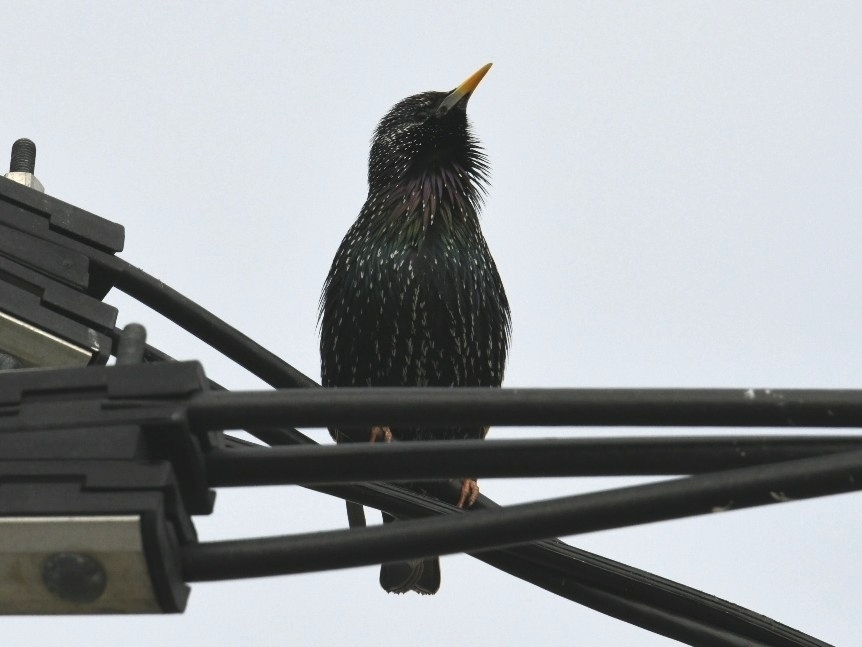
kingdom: Animalia
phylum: Chordata
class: Aves
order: Passeriformes
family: Sturnidae
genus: Sturnus
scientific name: Sturnus vulgaris
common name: Common starling
